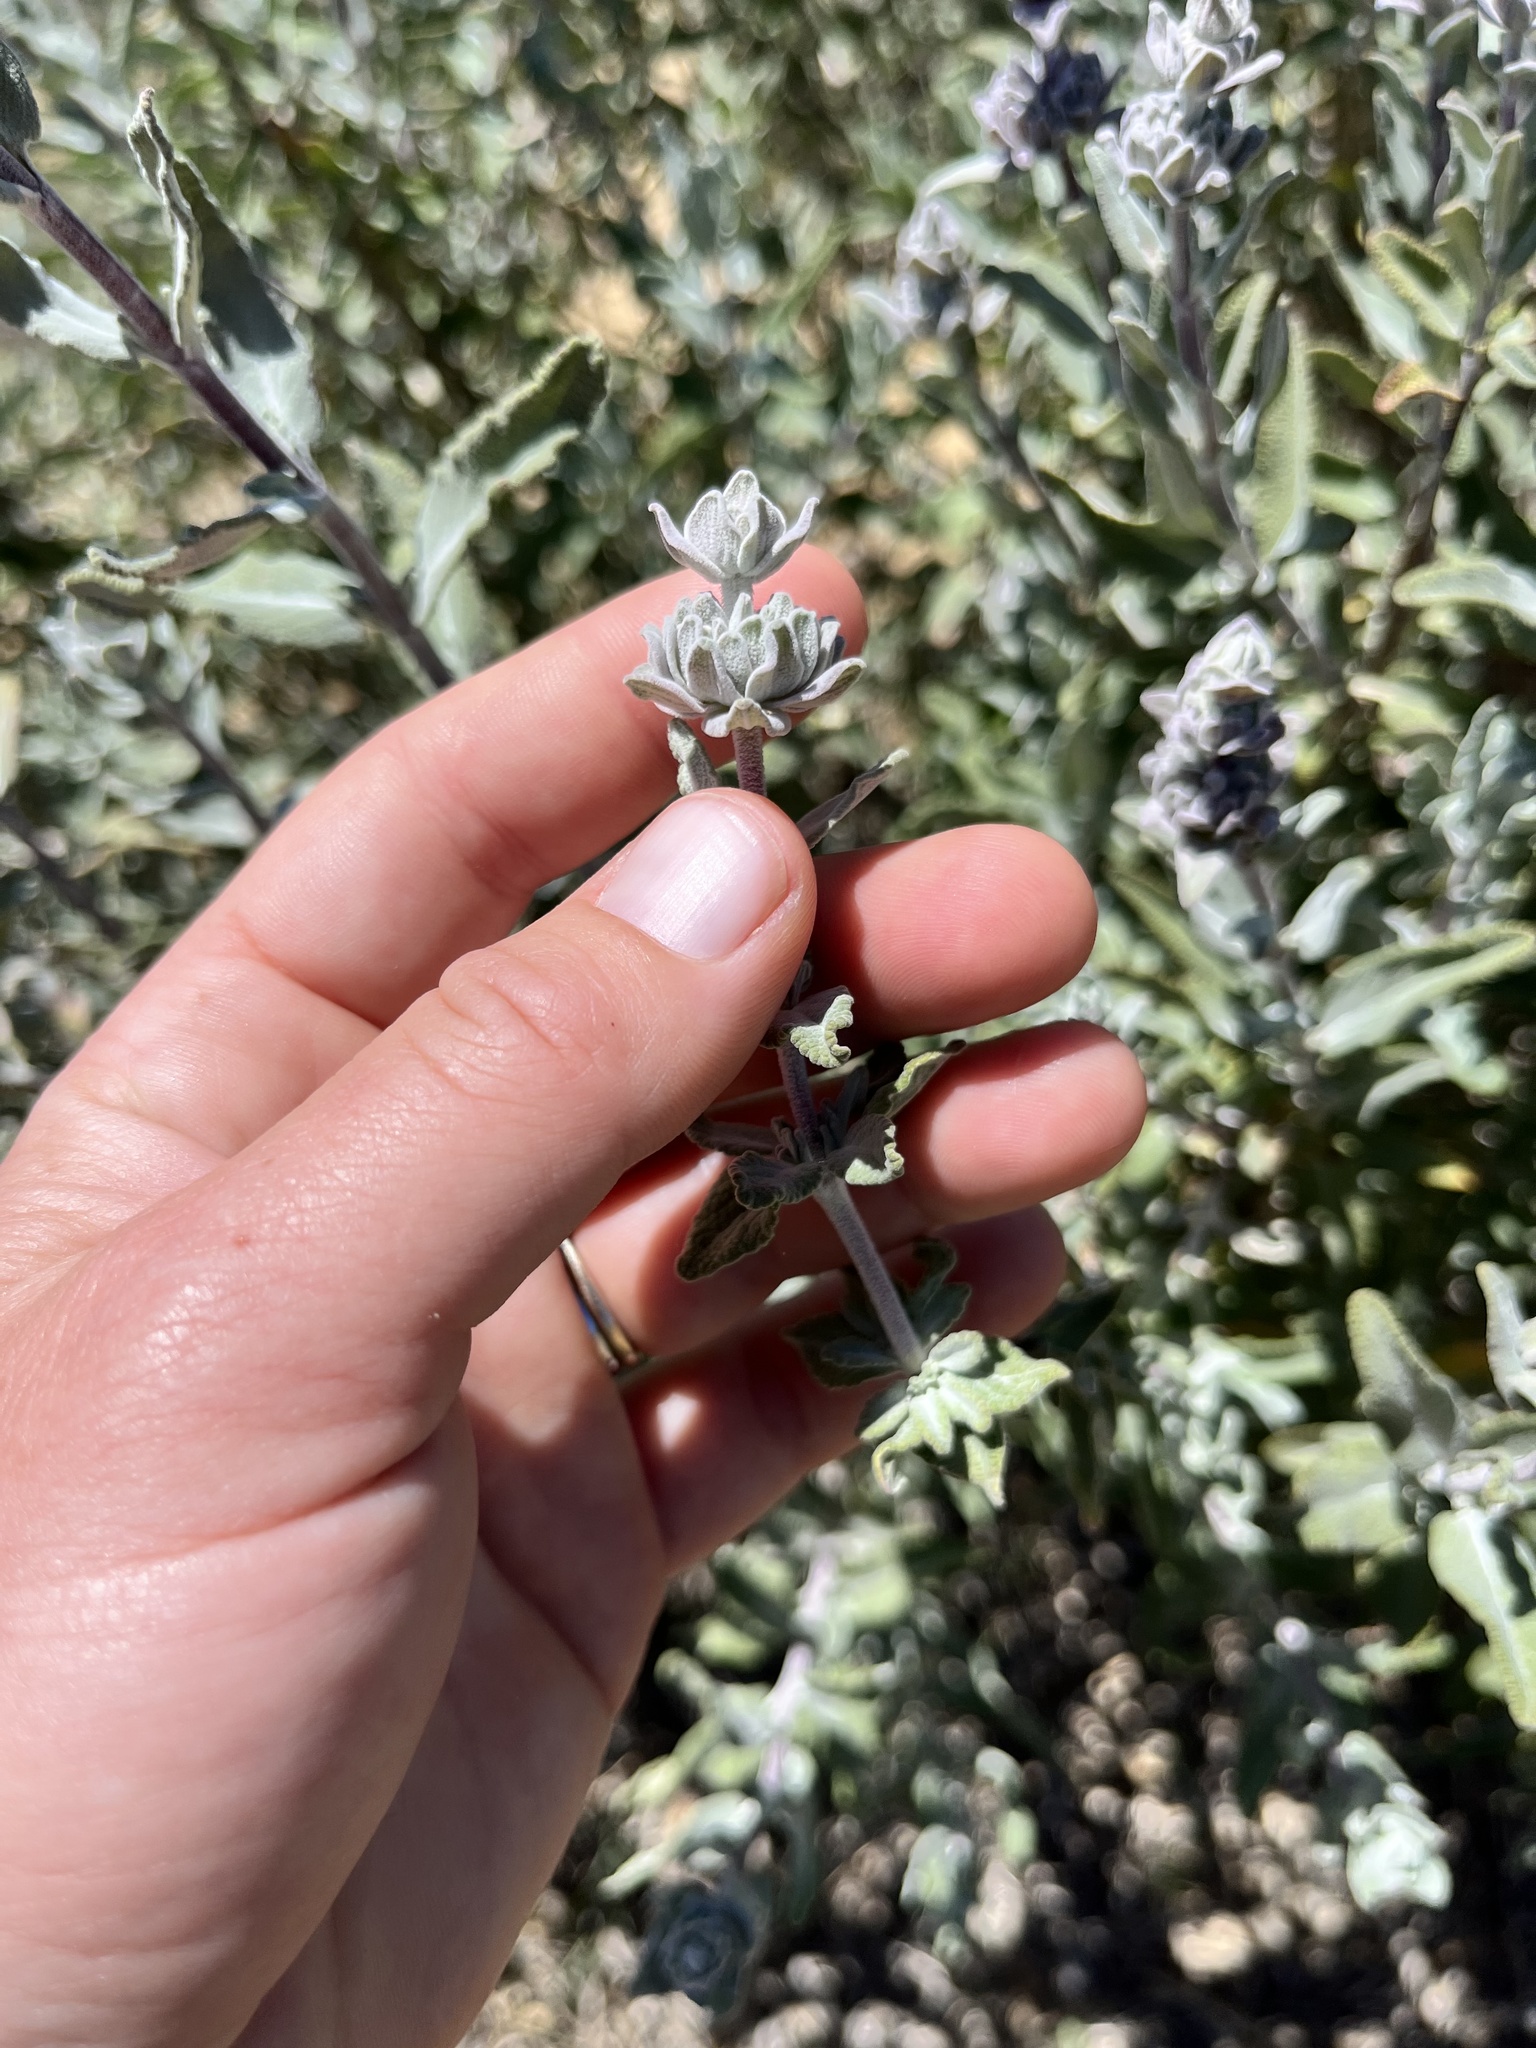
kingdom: Plantae
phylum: Tracheophyta
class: Magnoliopsida
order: Lamiales
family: Lamiaceae
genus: Salvia
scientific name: Salvia leucophylla
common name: Purple sage
